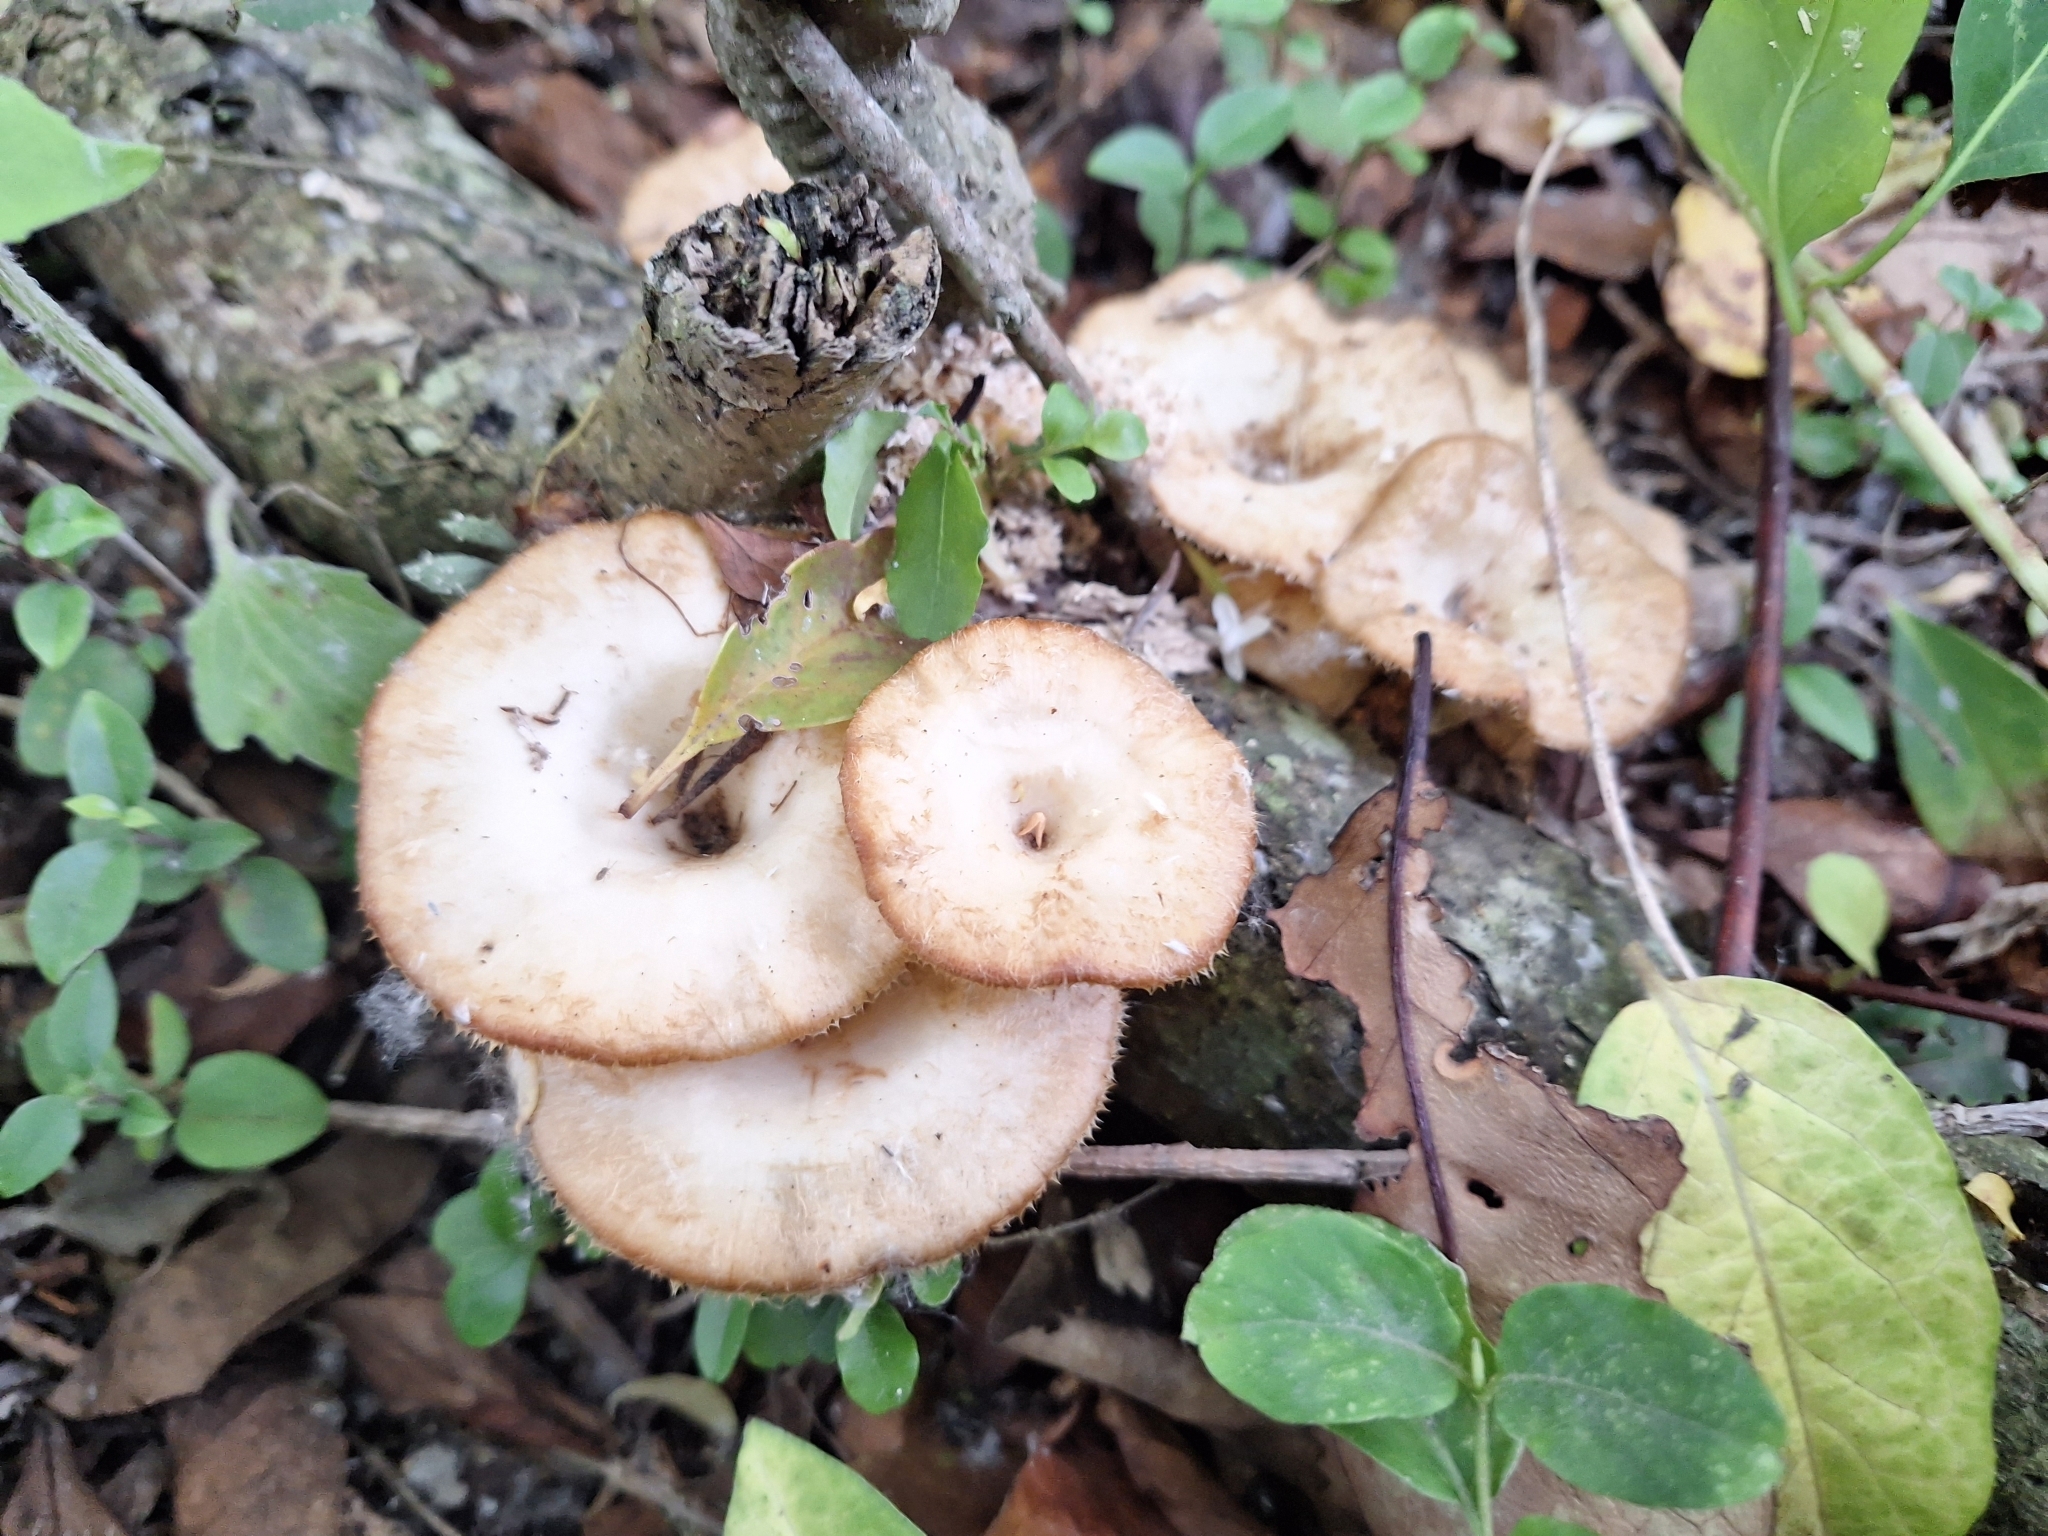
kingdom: Fungi
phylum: Basidiomycota
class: Agaricomycetes
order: Polyporales
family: Polyporaceae
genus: Lentinus
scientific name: Lentinus flexipes
